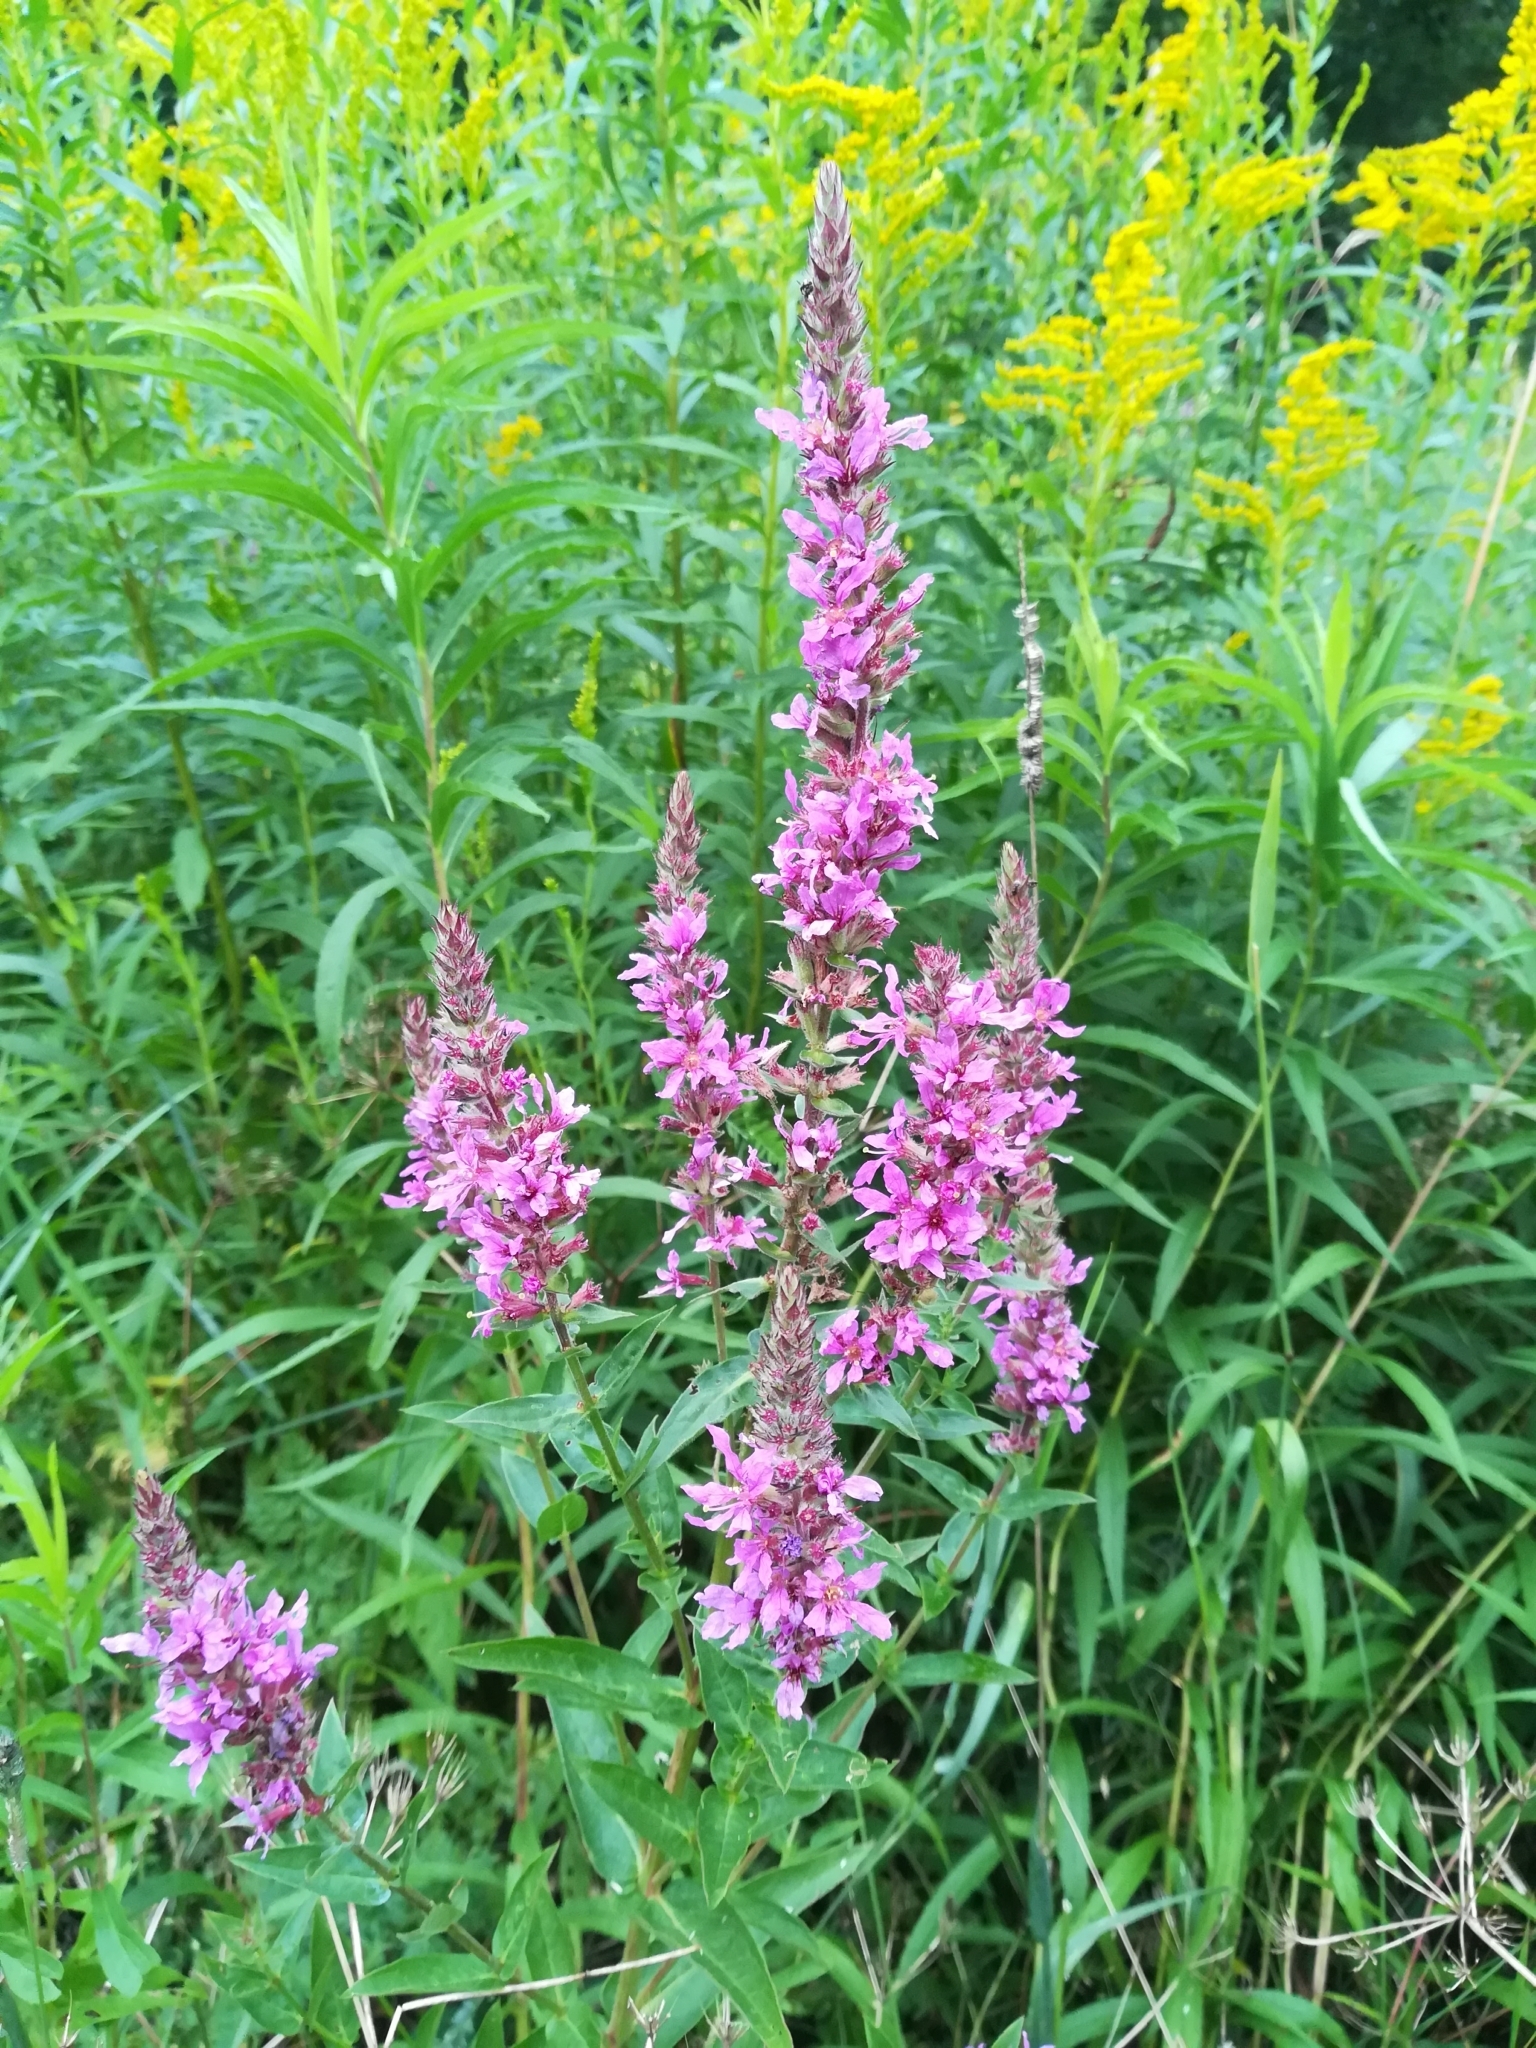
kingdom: Plantae
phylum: Tracheophyta
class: Magnoliopsida
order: Myrtales
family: Lythraceae
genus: Lythrum
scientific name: Lythrum salicaria
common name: Purple loosestrife
